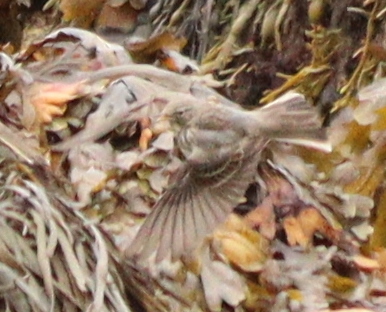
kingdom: Animalia
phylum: Chordata
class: Aves
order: Passeriformes
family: Motacillidae
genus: Anthus
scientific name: Anthus petrosus
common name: Eurasian rock pipit
